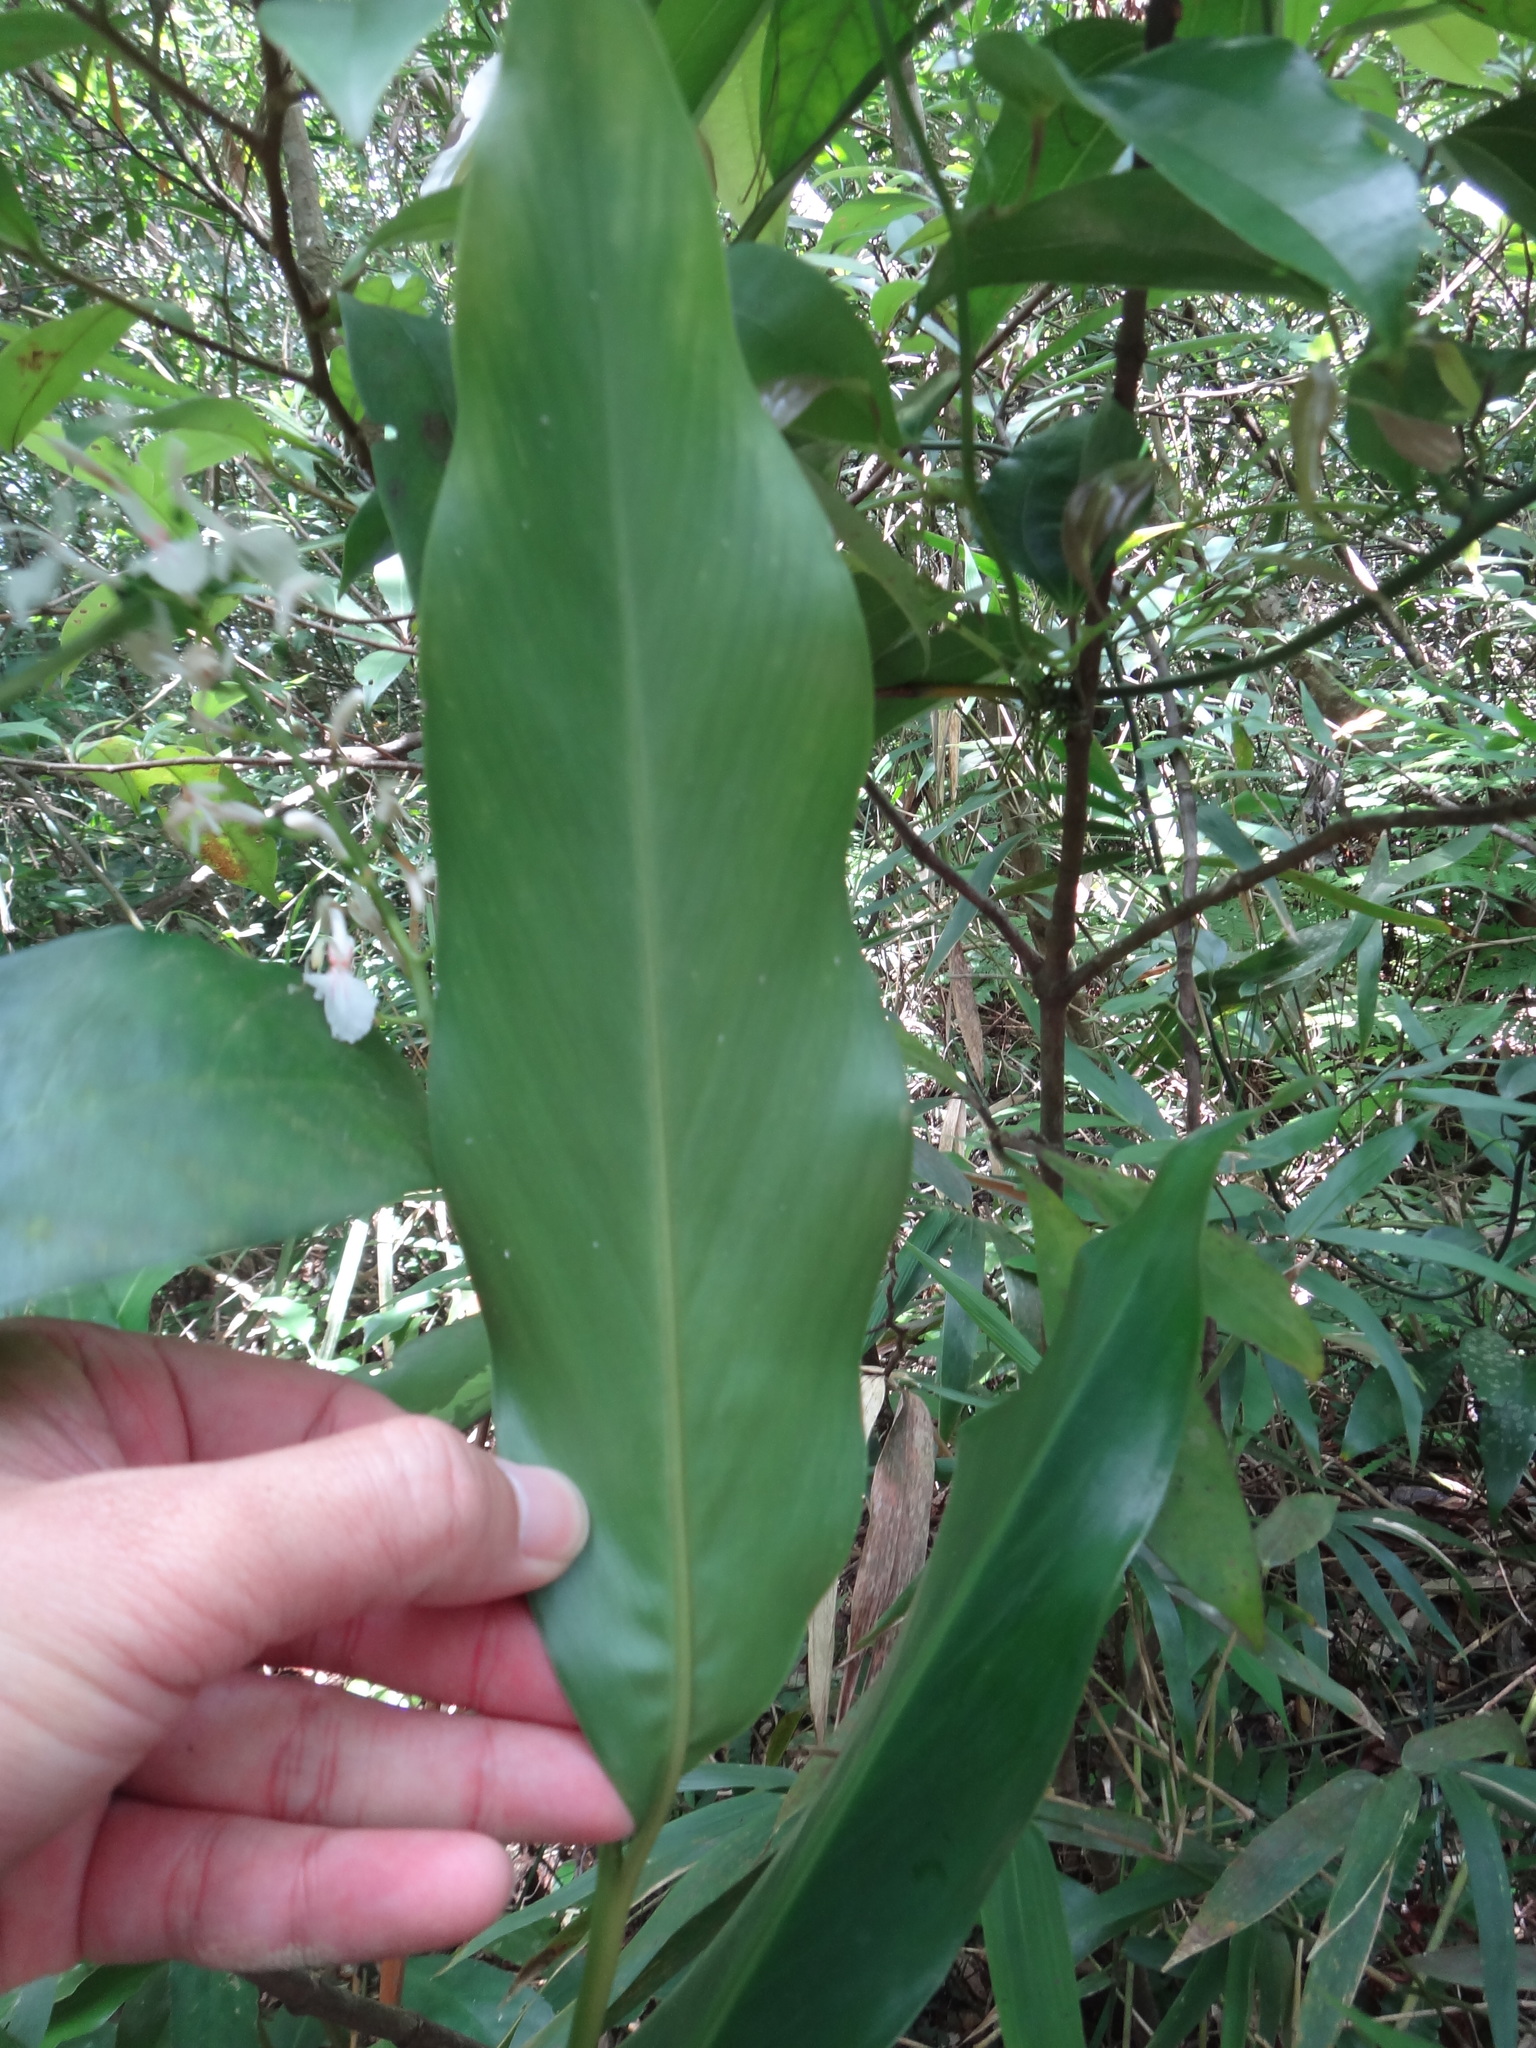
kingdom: Plantae
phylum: Tracheophyta
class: Liliopsida
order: Zingiberales
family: Zingiberaceae
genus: Alpinia
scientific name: Alpinia intermedia
